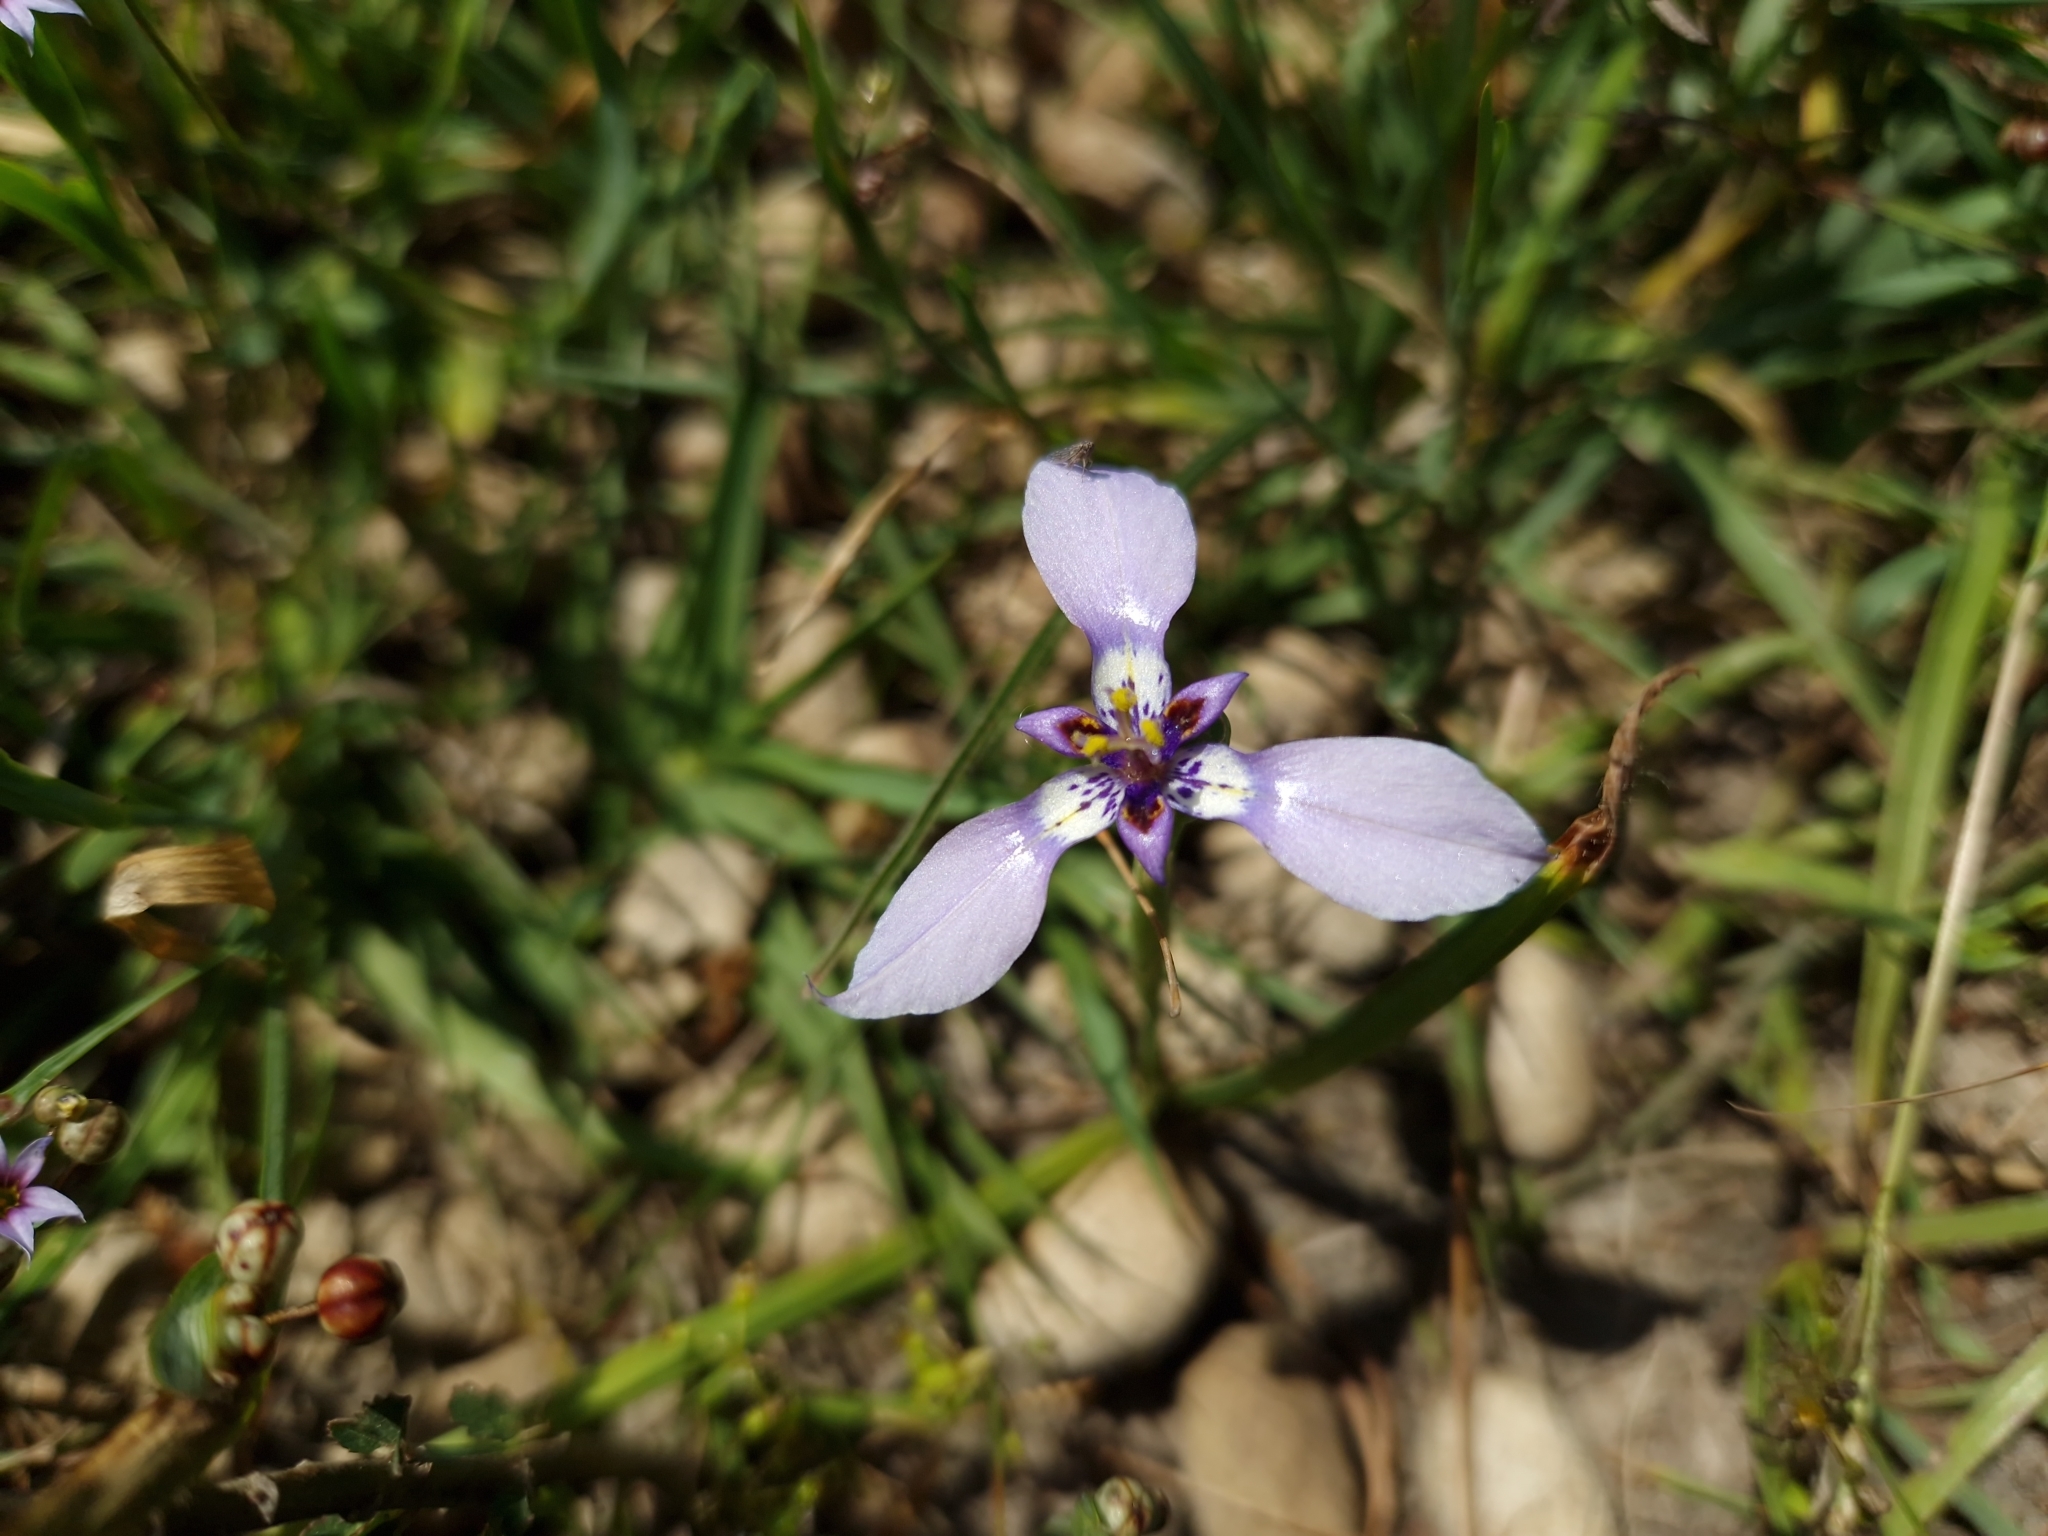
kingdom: Plantae
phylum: Tracheophyta
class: Liliopsida
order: Asparagales
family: Iridaceae
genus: Herbertia
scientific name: Herbertia lahue
